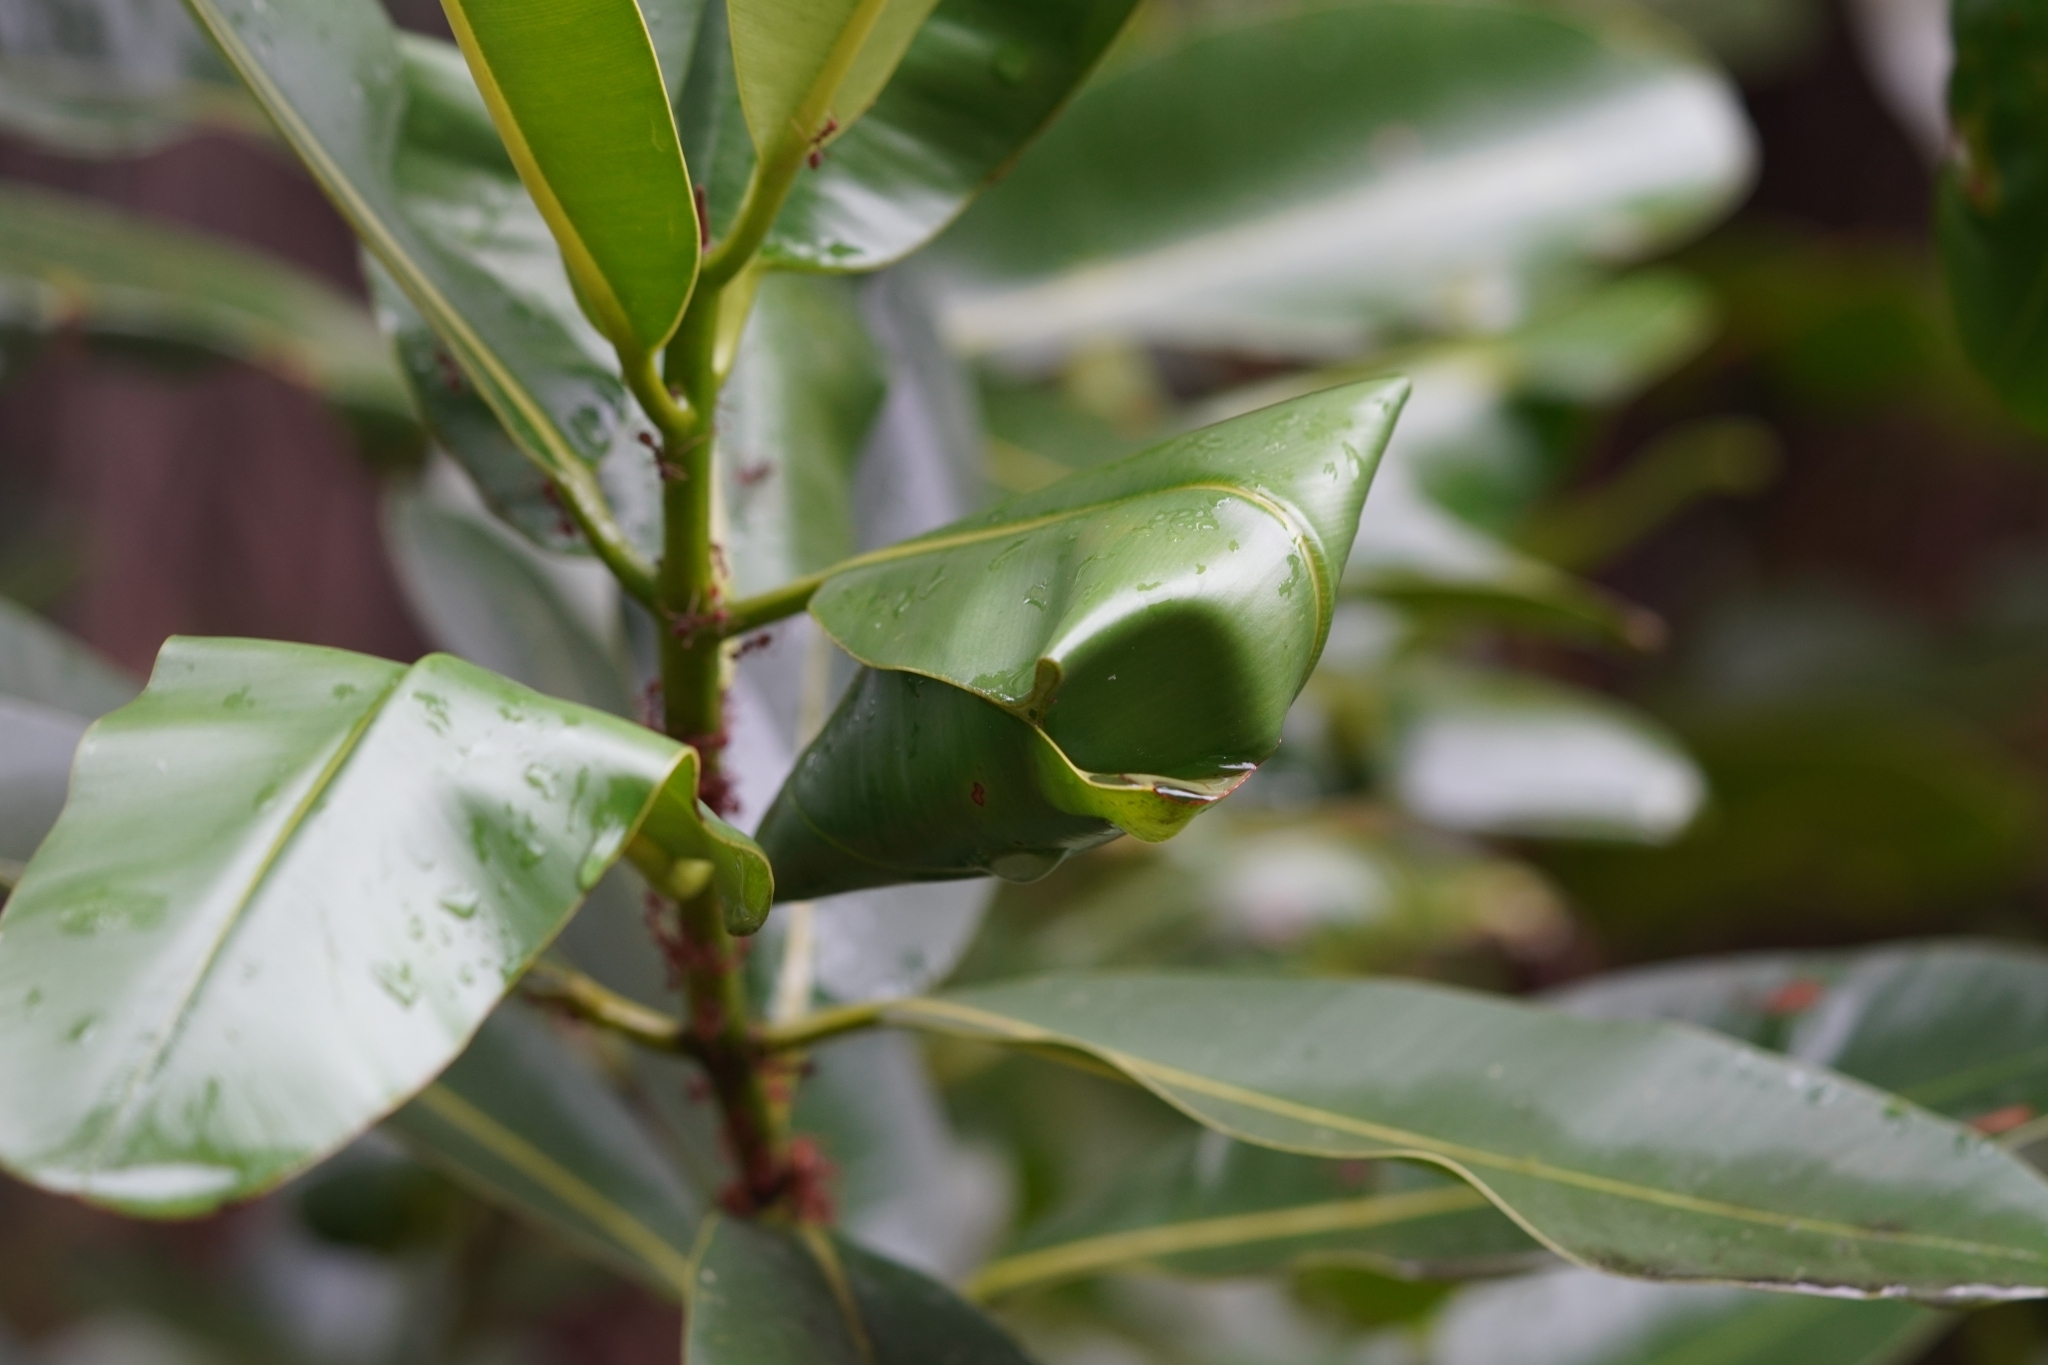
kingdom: Animalia
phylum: Arthropoda
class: Insecta
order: Hymenoptera
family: Formicidae
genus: Oecophylla
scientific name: Oecophylla smaragdina
